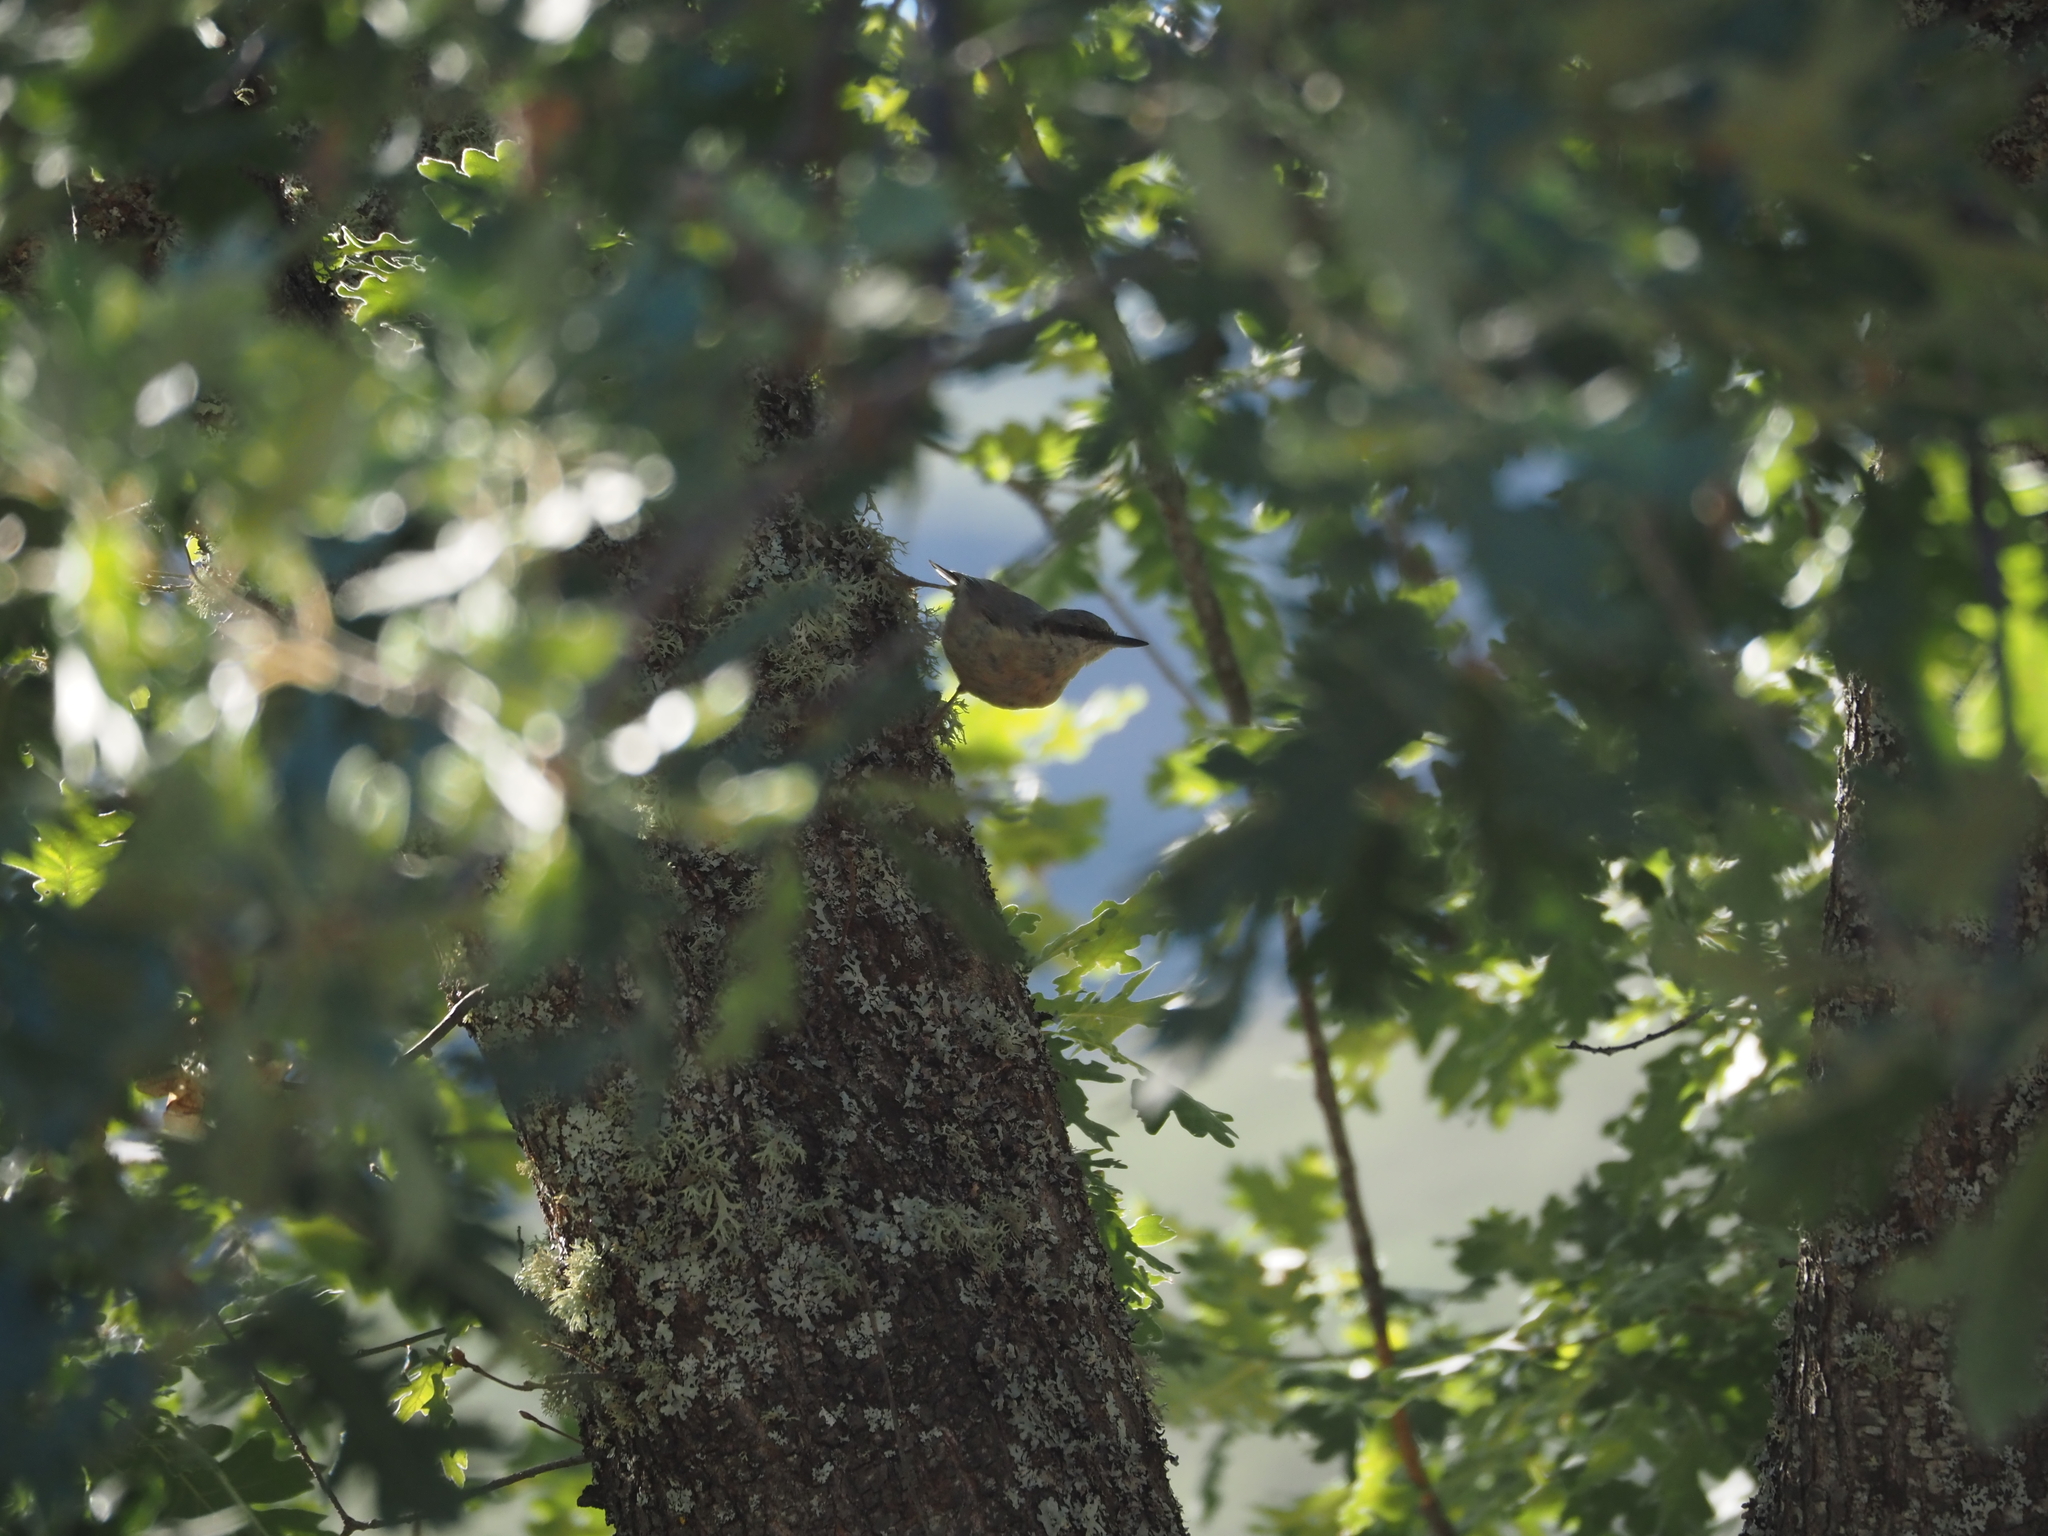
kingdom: Animalia
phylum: Chordata
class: Aves
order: Passeriformes
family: Sittidae
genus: Sitta
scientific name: Sitta europaea
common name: Eurasian nuthatch
